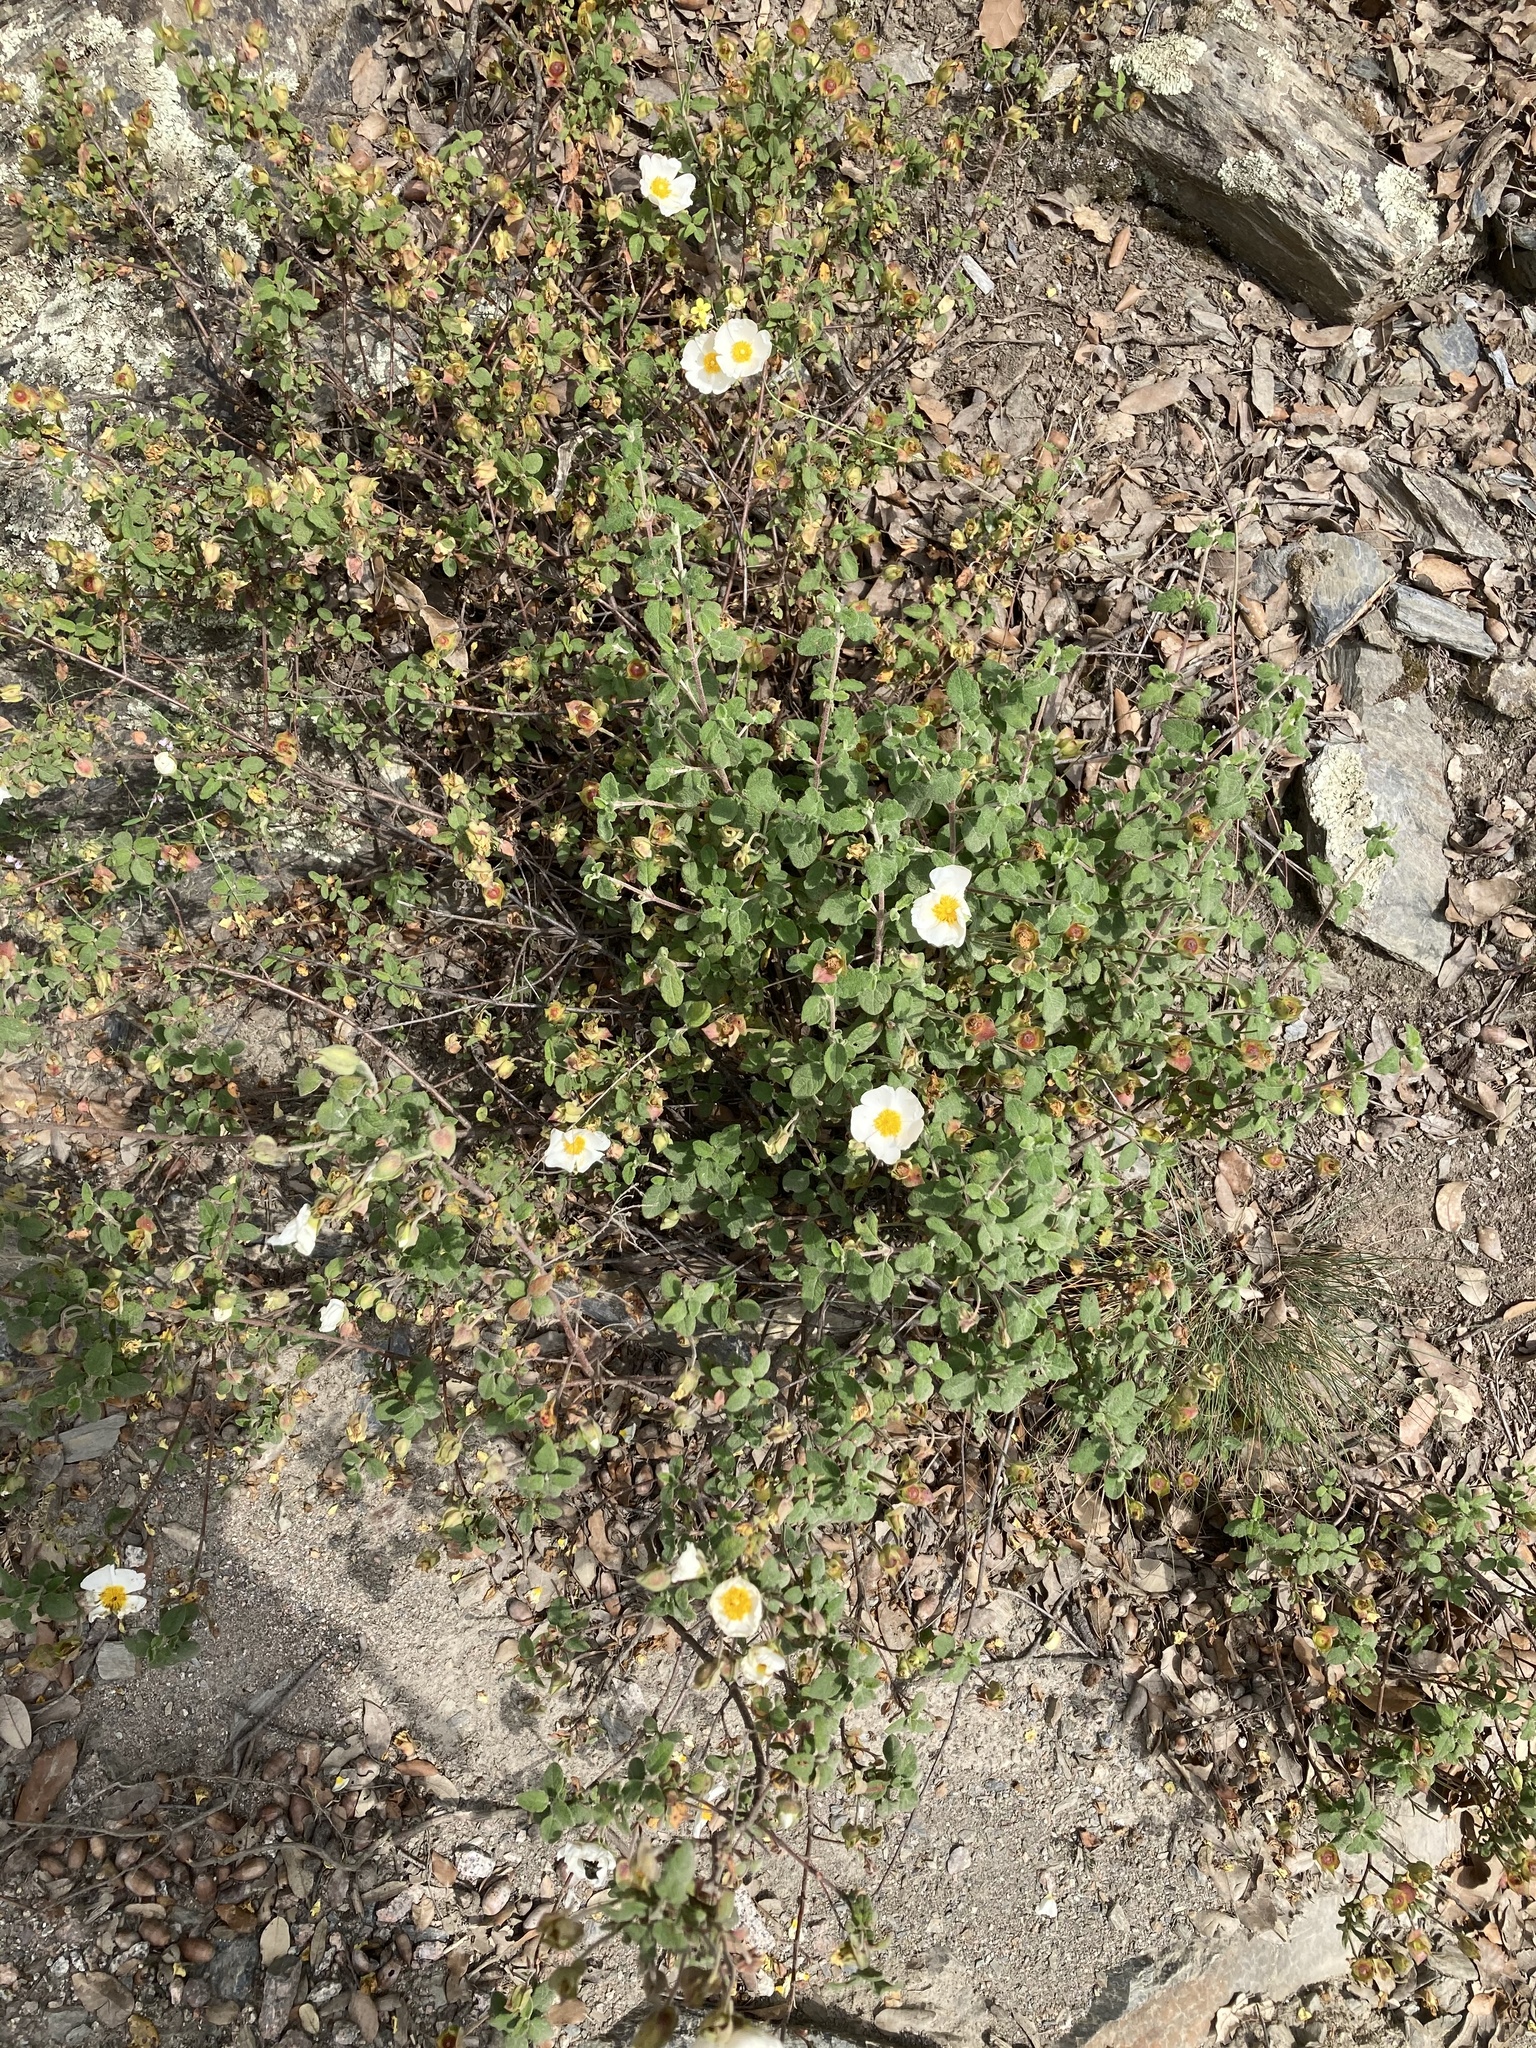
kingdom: Plantae
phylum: Tracheophyta
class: Magnoliopsida
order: Malvales
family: Cistaceae
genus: Cistus
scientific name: Cistus salviifolius
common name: Salvia cistus
